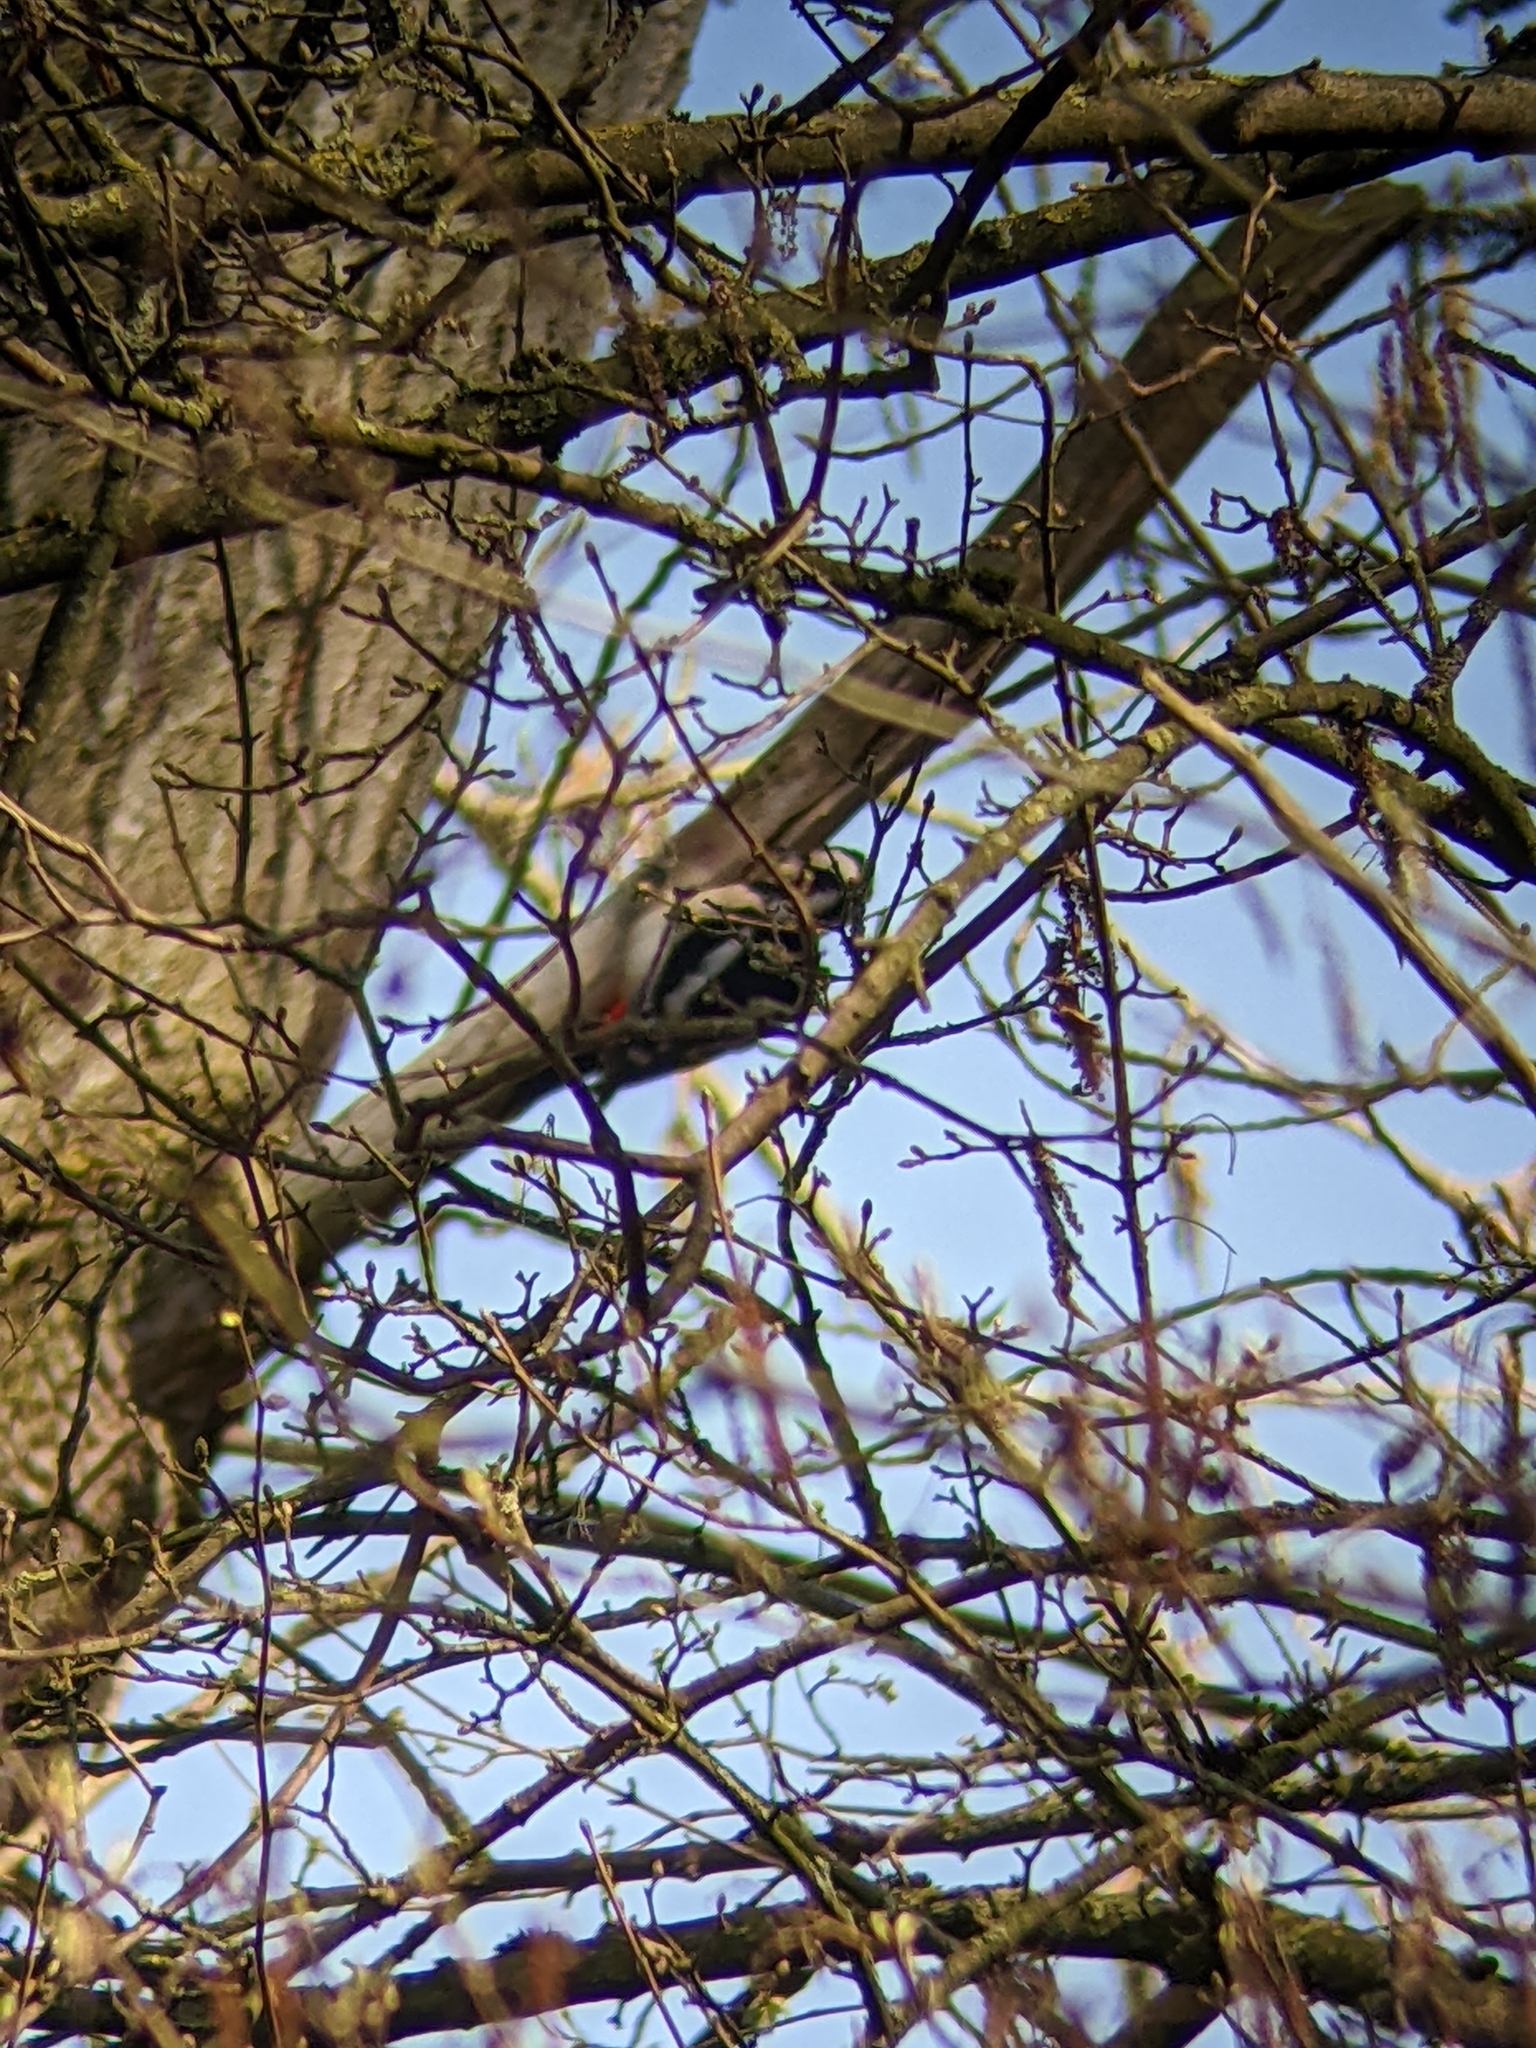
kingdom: Animalia
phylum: Chordata
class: Aves
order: Piciformes
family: Picidae
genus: Dendrocopos
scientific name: Dendrocopos major
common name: Great spotted woodpecker
